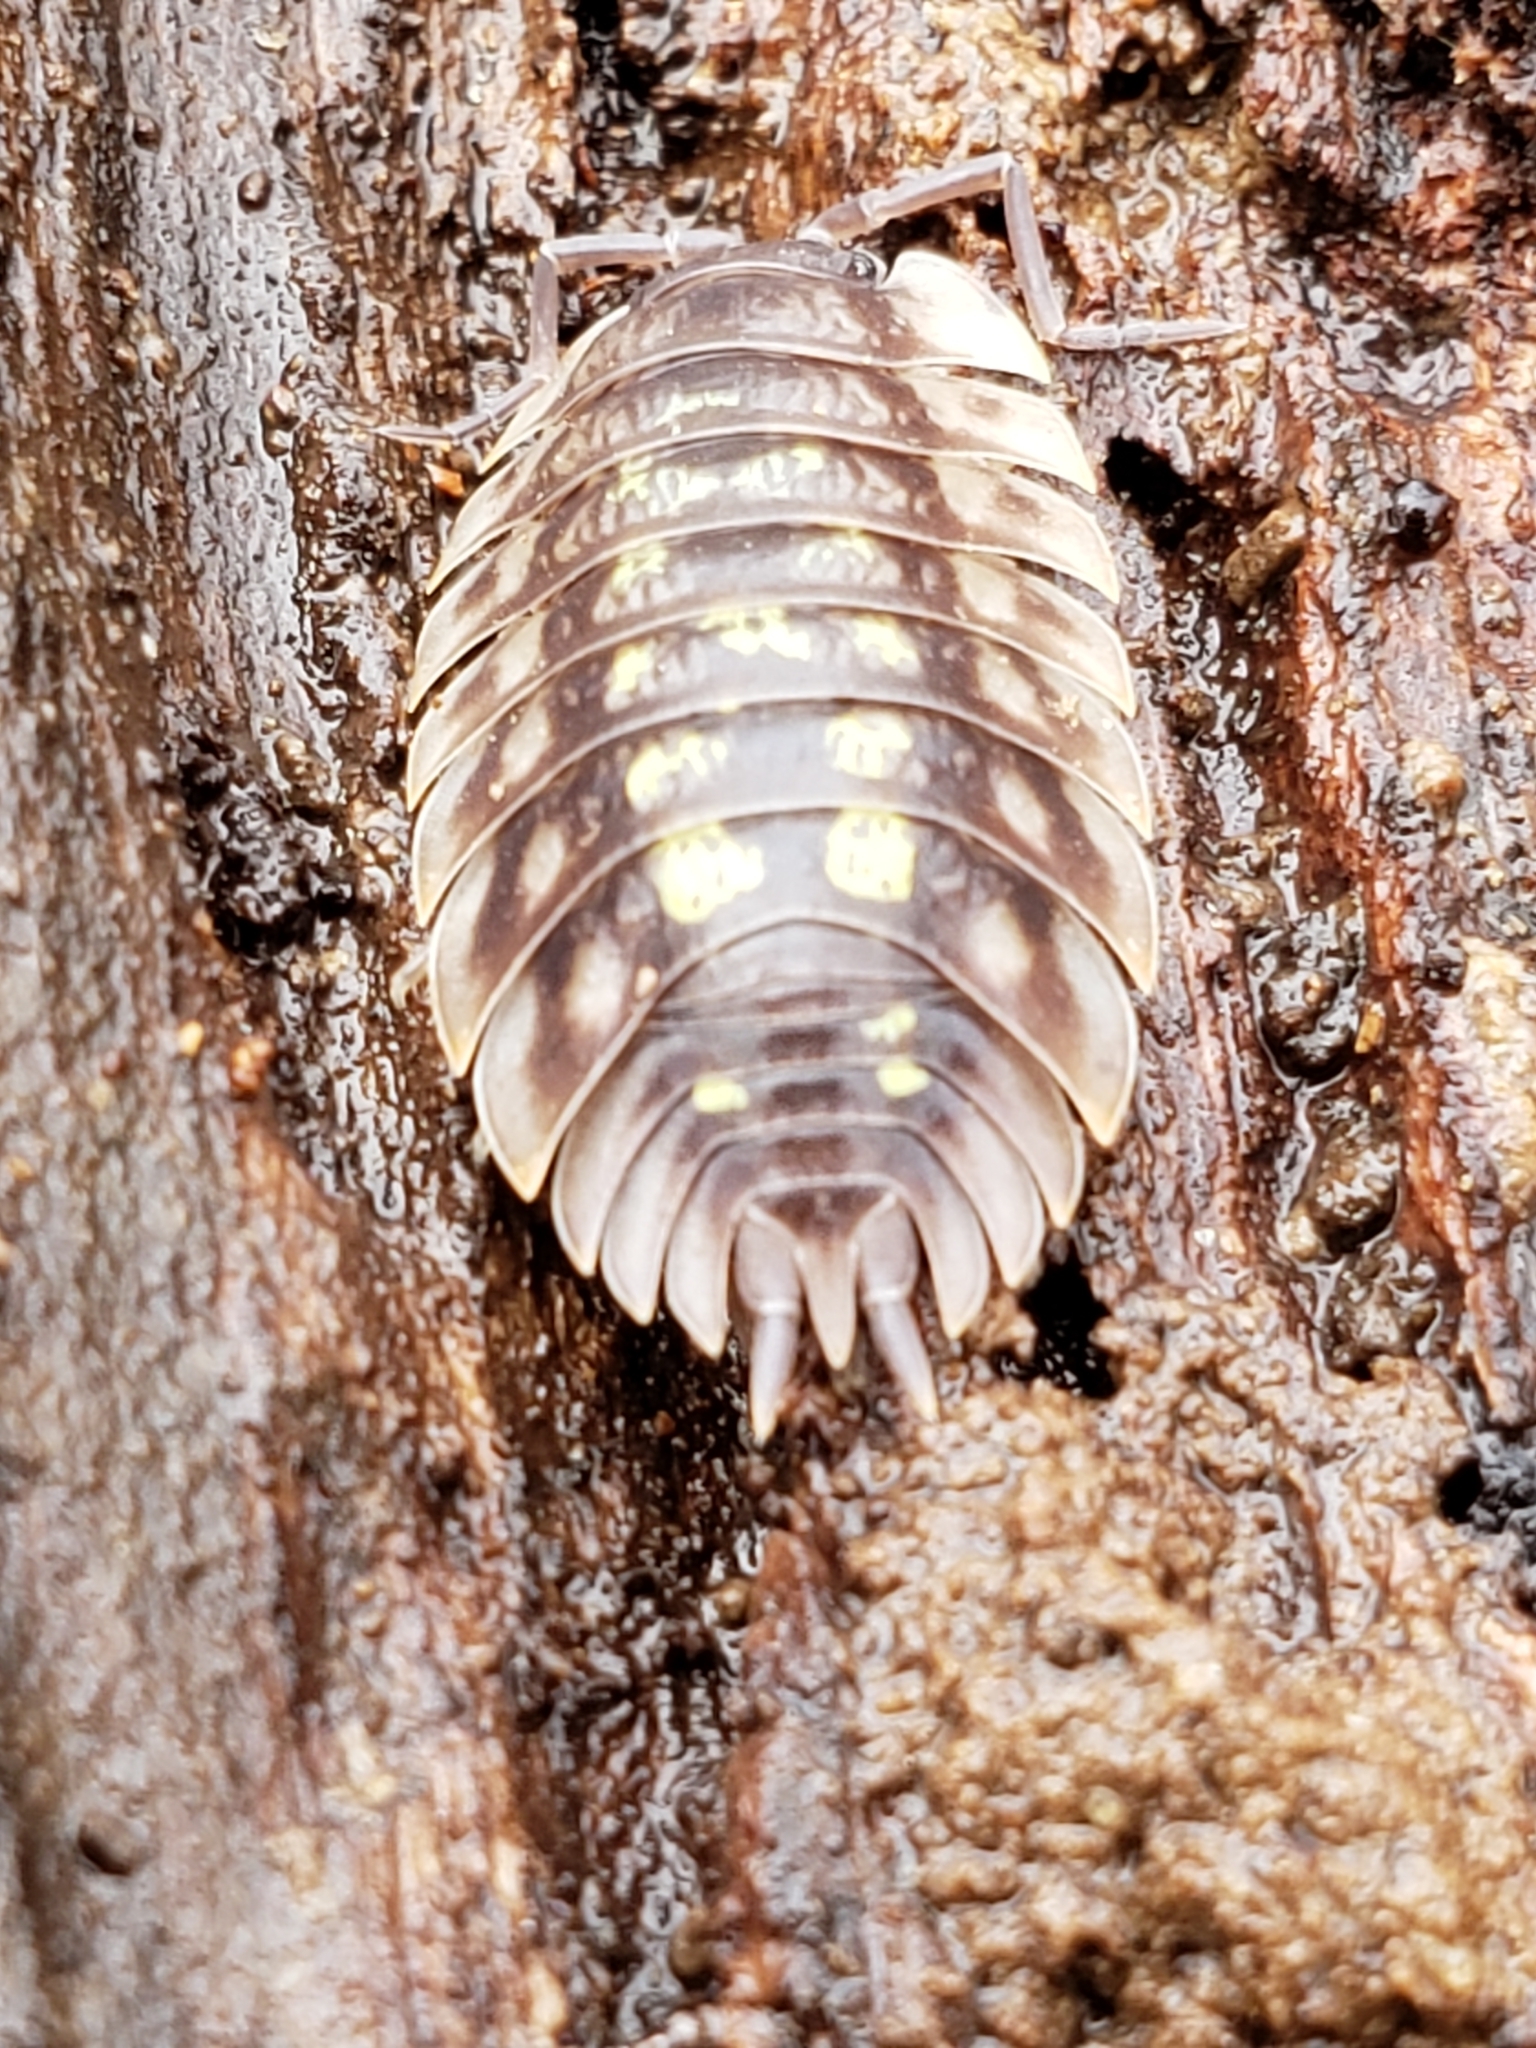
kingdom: Animalia
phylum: Arthropoda
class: Malacostraca
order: Isopoda
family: Oniscidae
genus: Oniscus
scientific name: Oniscus asellus
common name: Common shiny woodlouse
